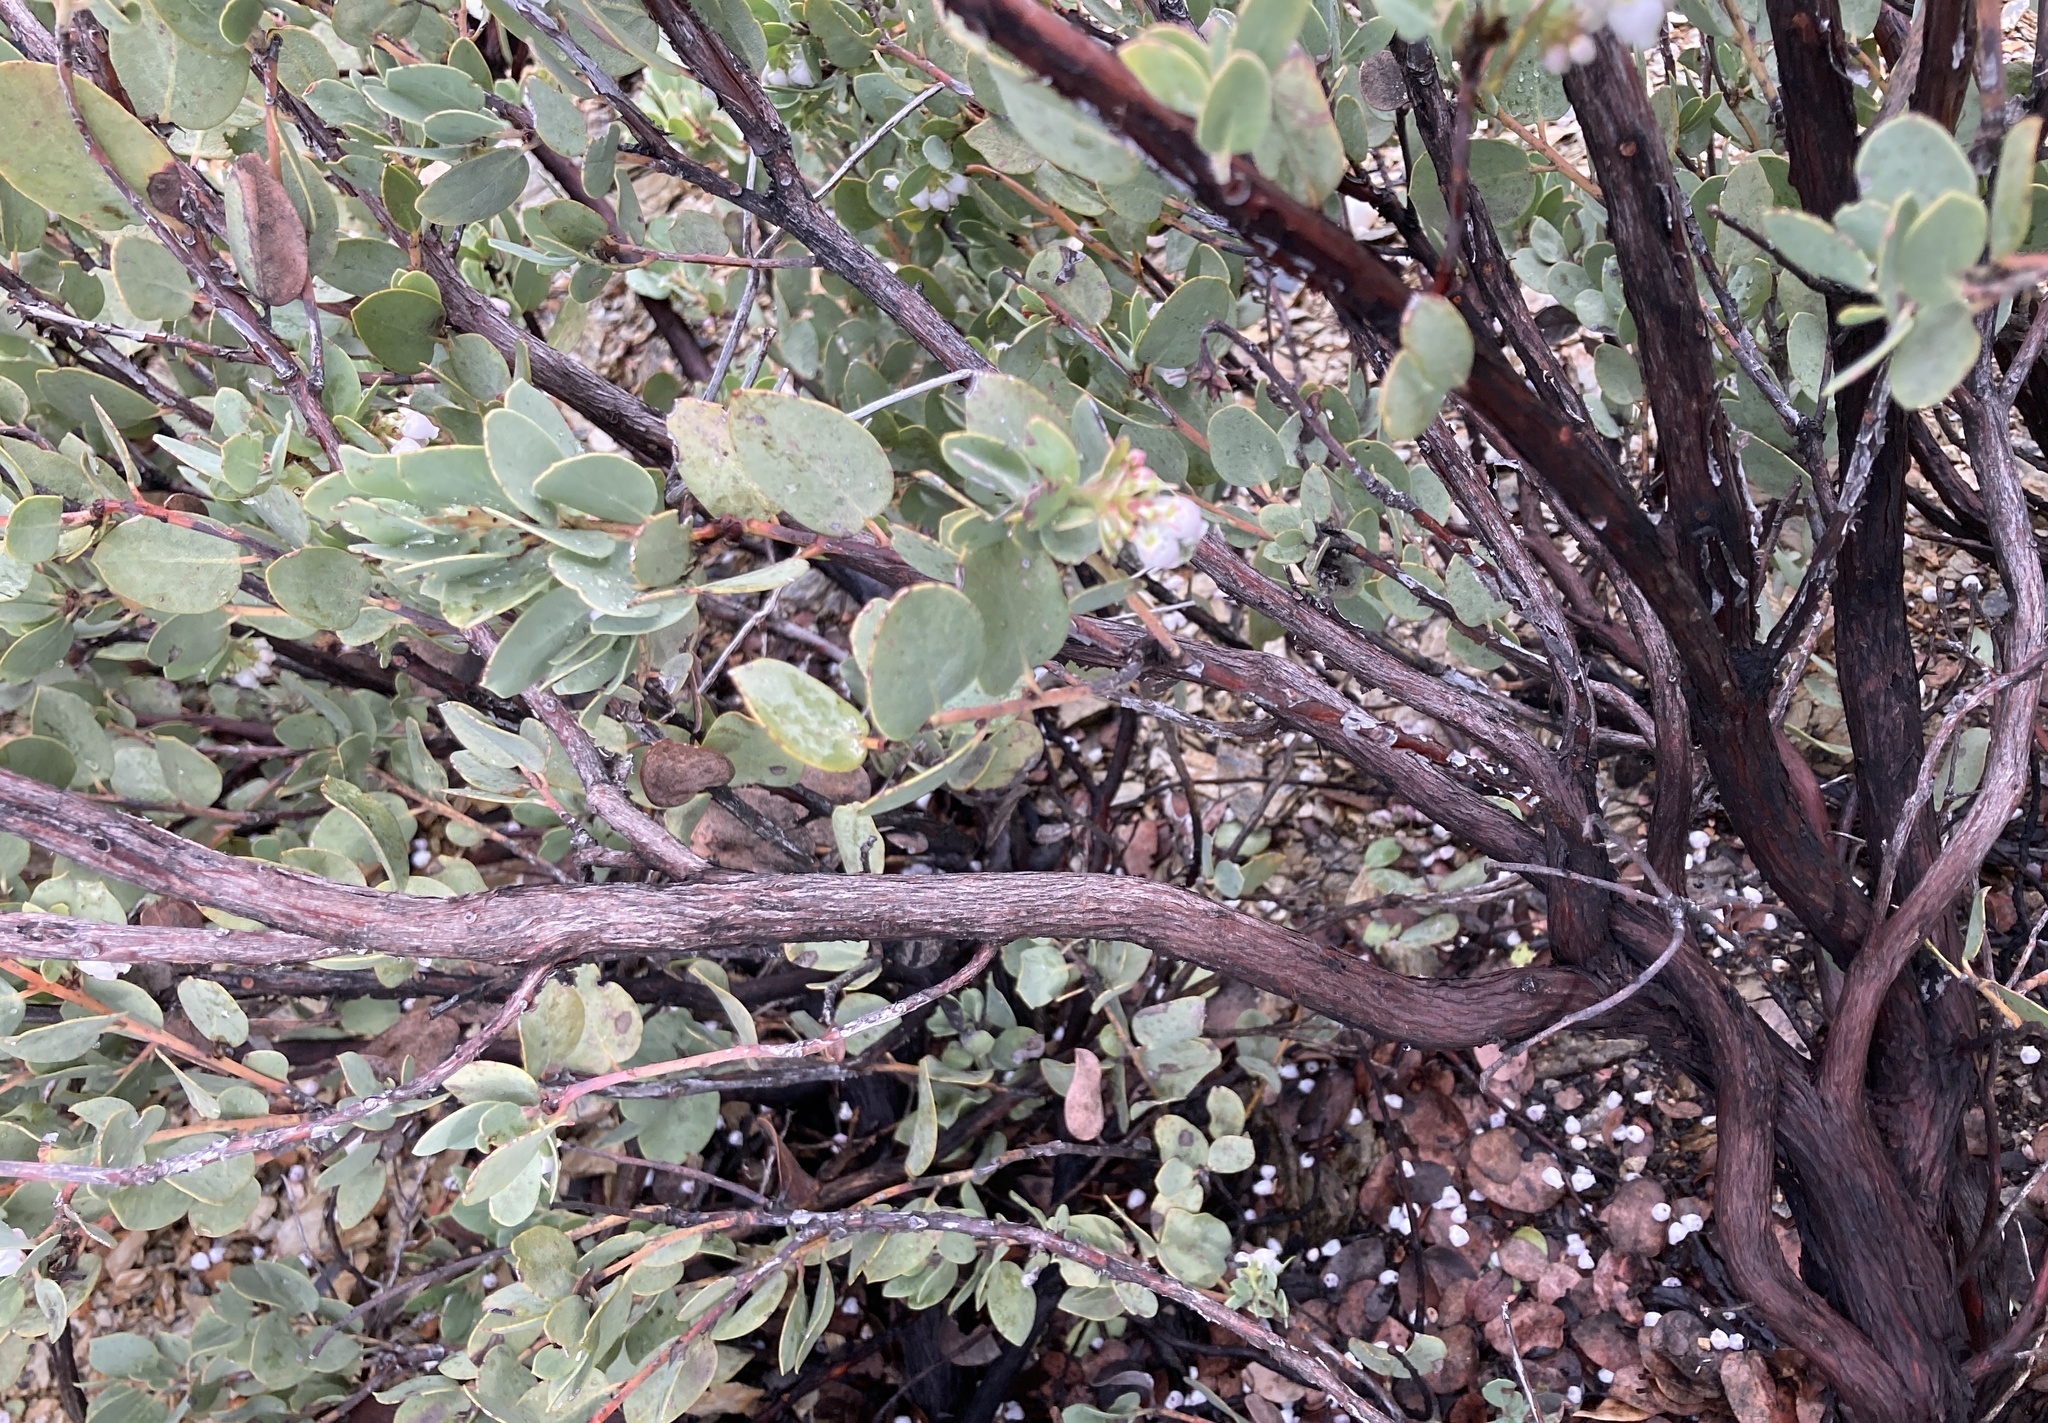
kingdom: Plantae
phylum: Tracheophyta
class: Magnoliopsida
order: Ericales
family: Ericaceae
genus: Arctostaphylos
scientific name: Arctostaphylos nissenana
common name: Nissenan manzanita
